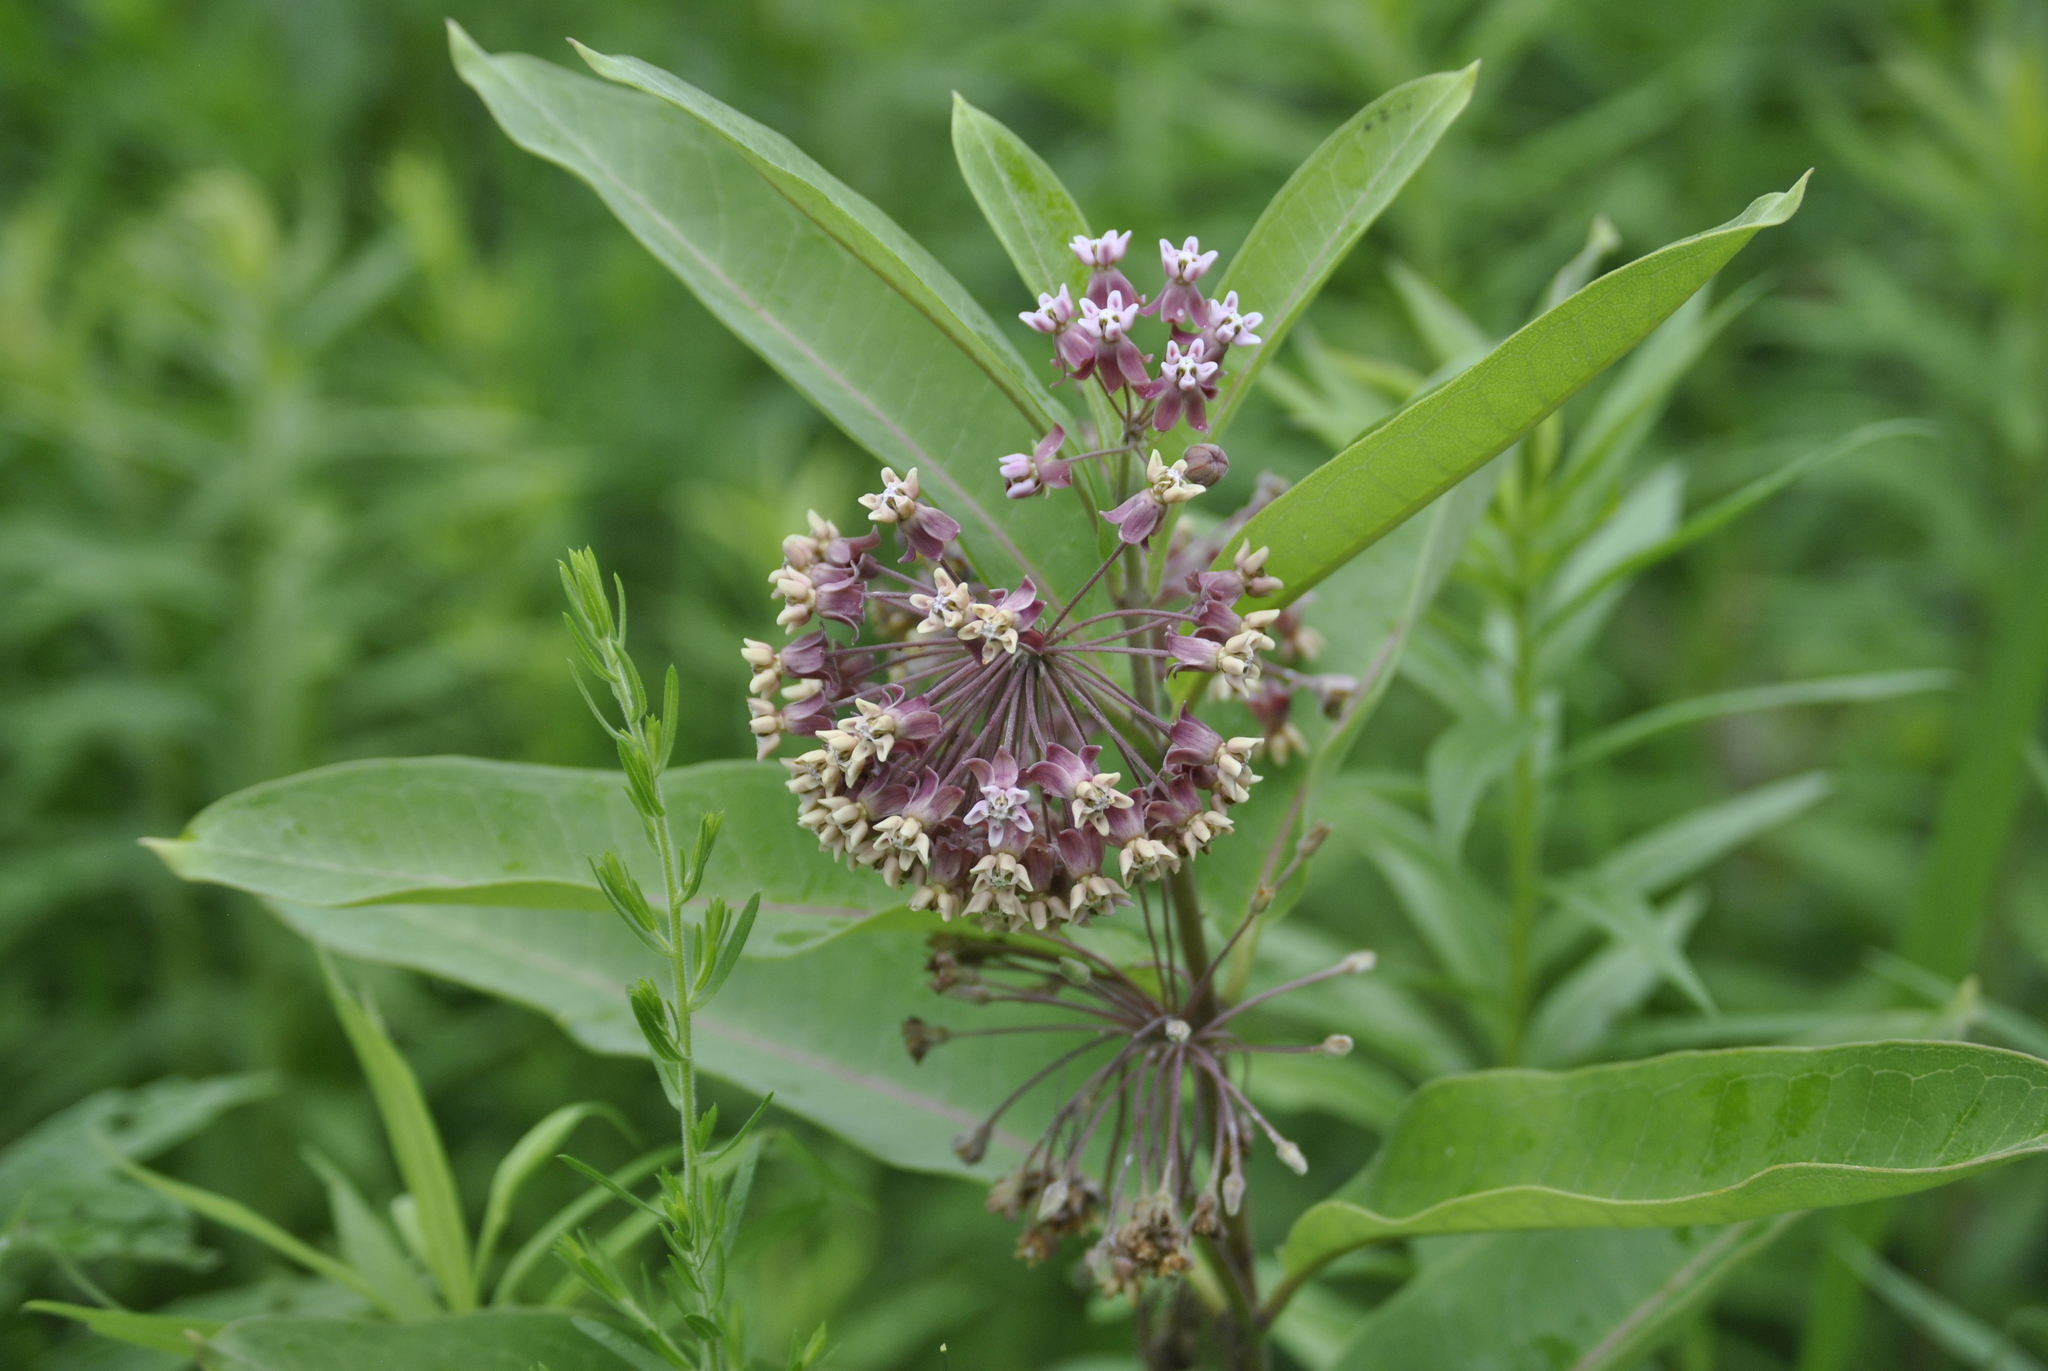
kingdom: Plantae
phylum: Tracheophyta
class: Magnoliopsida
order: Gentianales
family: Apocynaceae
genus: Asclepias
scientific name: Asclepias syriaca
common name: Common milkweed
